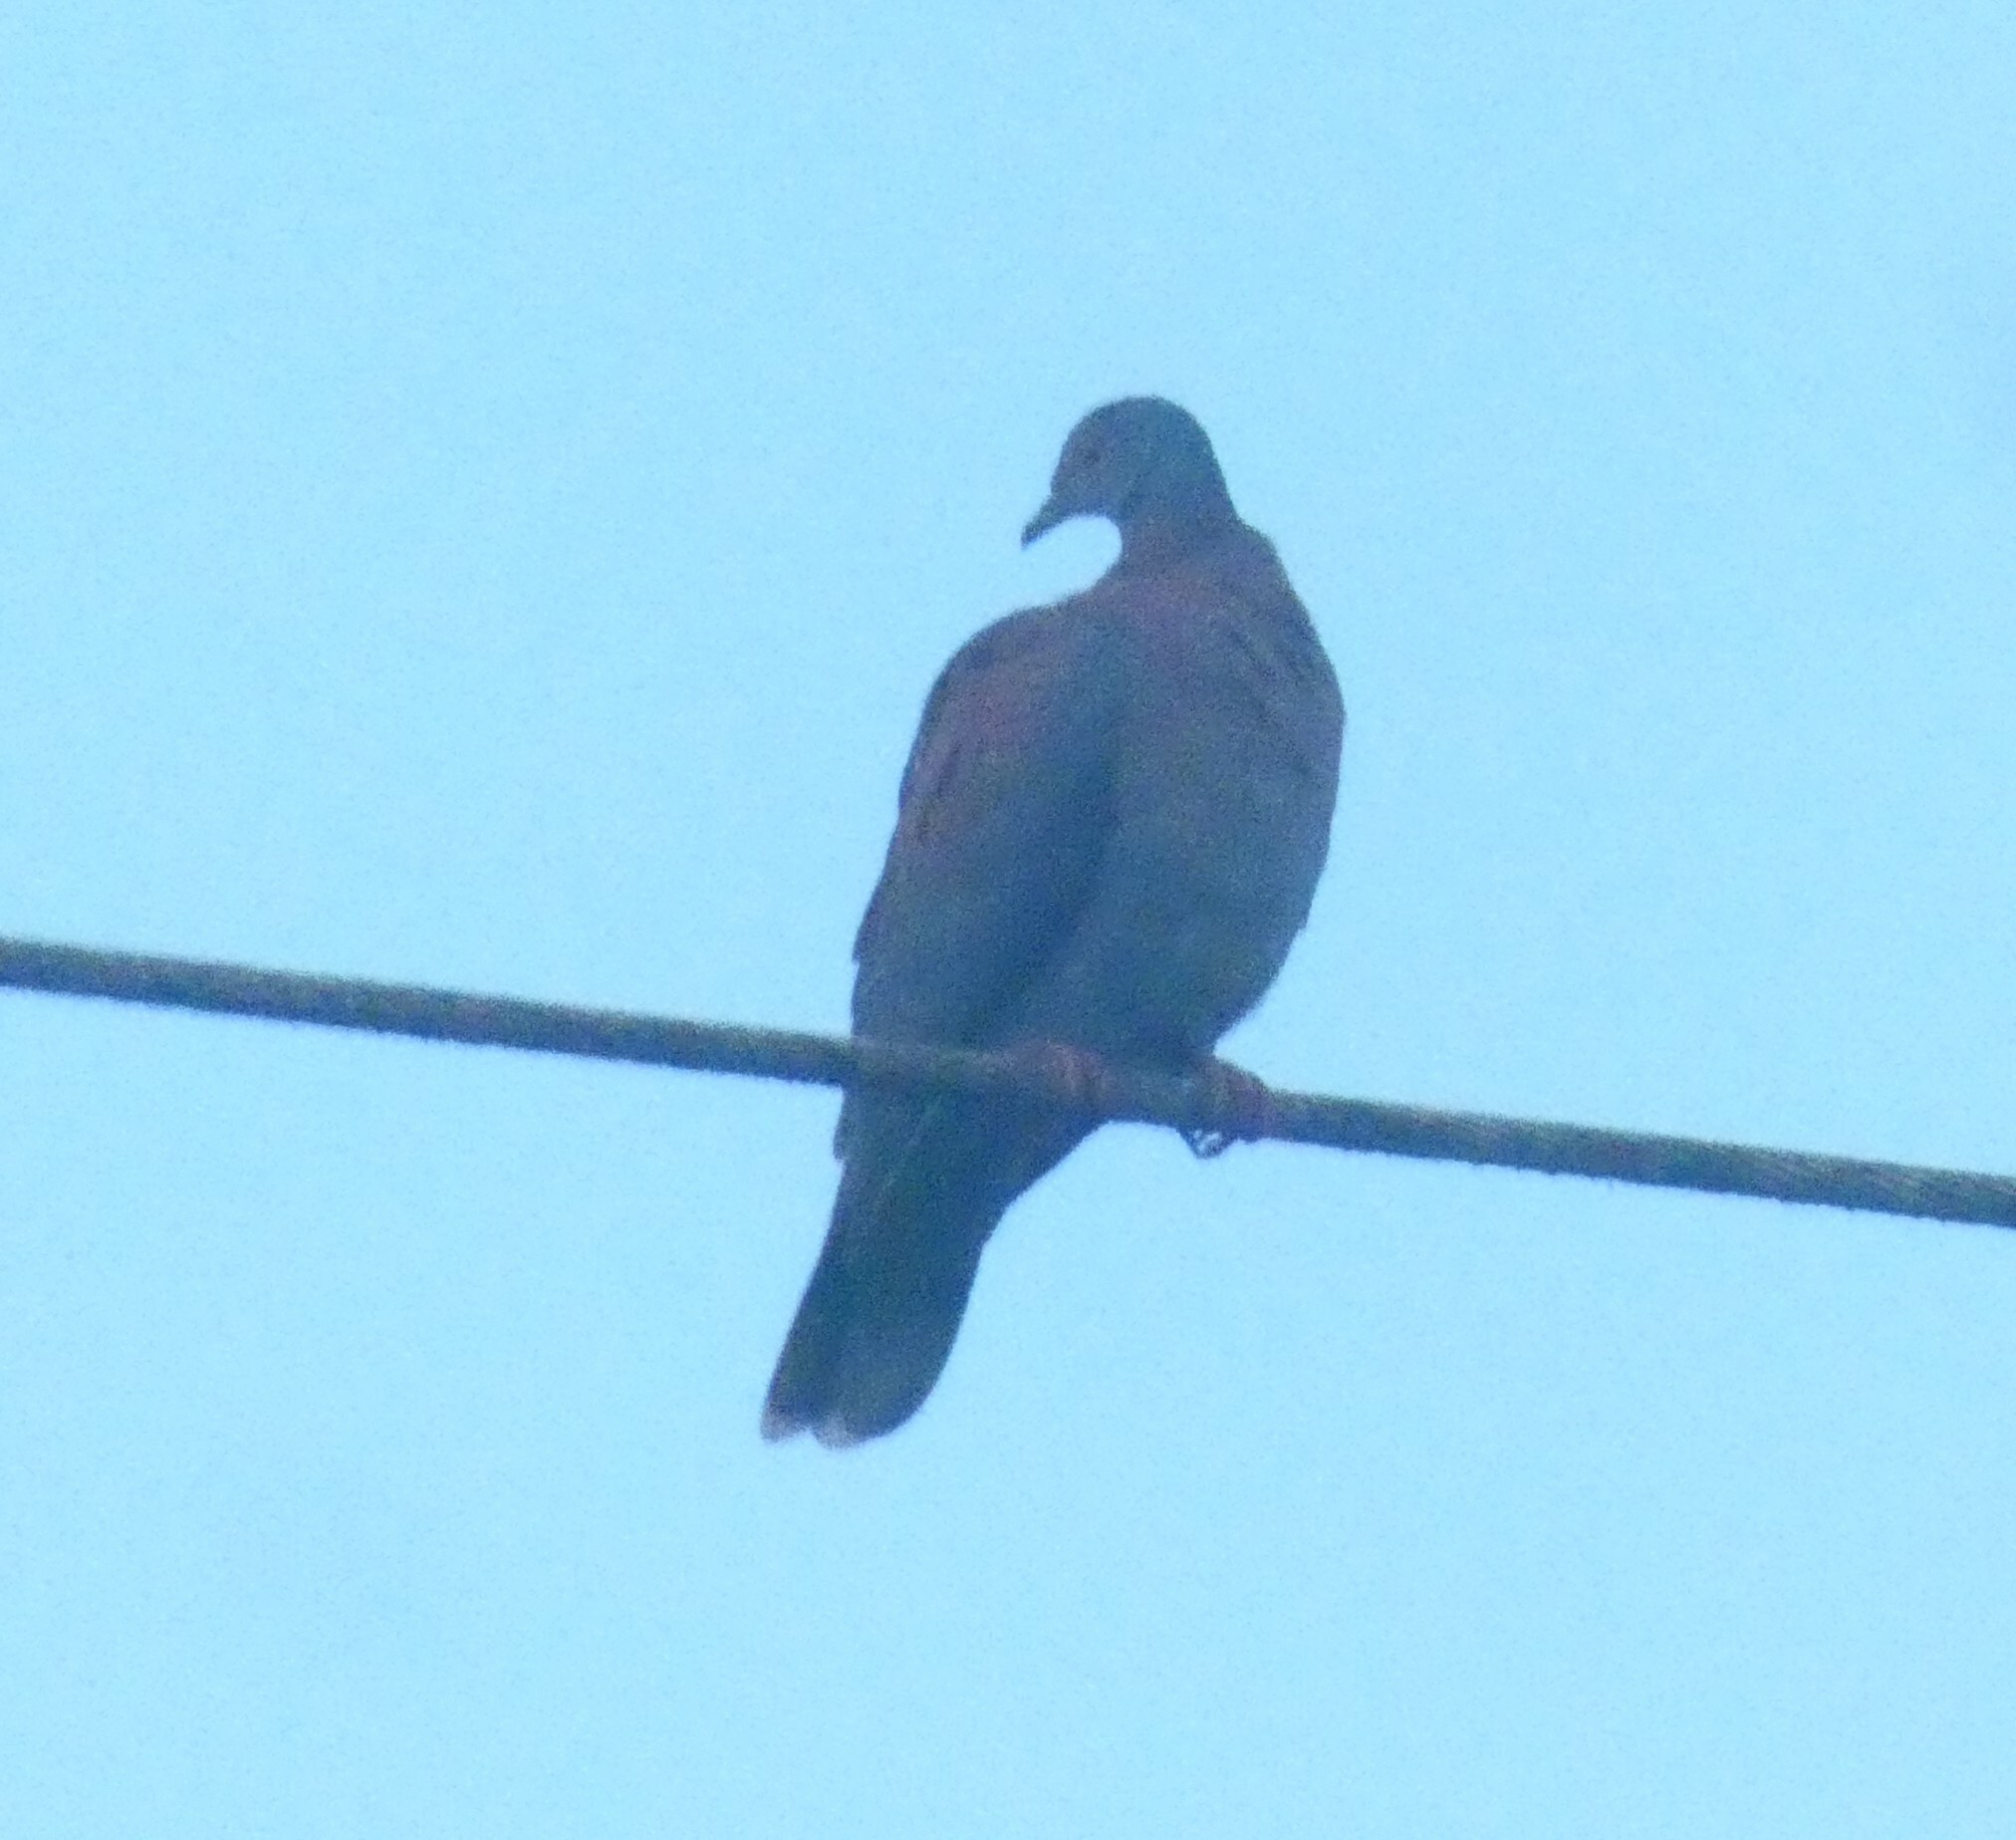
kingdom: Animalia
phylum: Chordata
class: Aves
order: Columbiformes
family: Columbidae
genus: Patagioenas
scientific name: Patagioenas cayennensis
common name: Pale-vented pigeon
